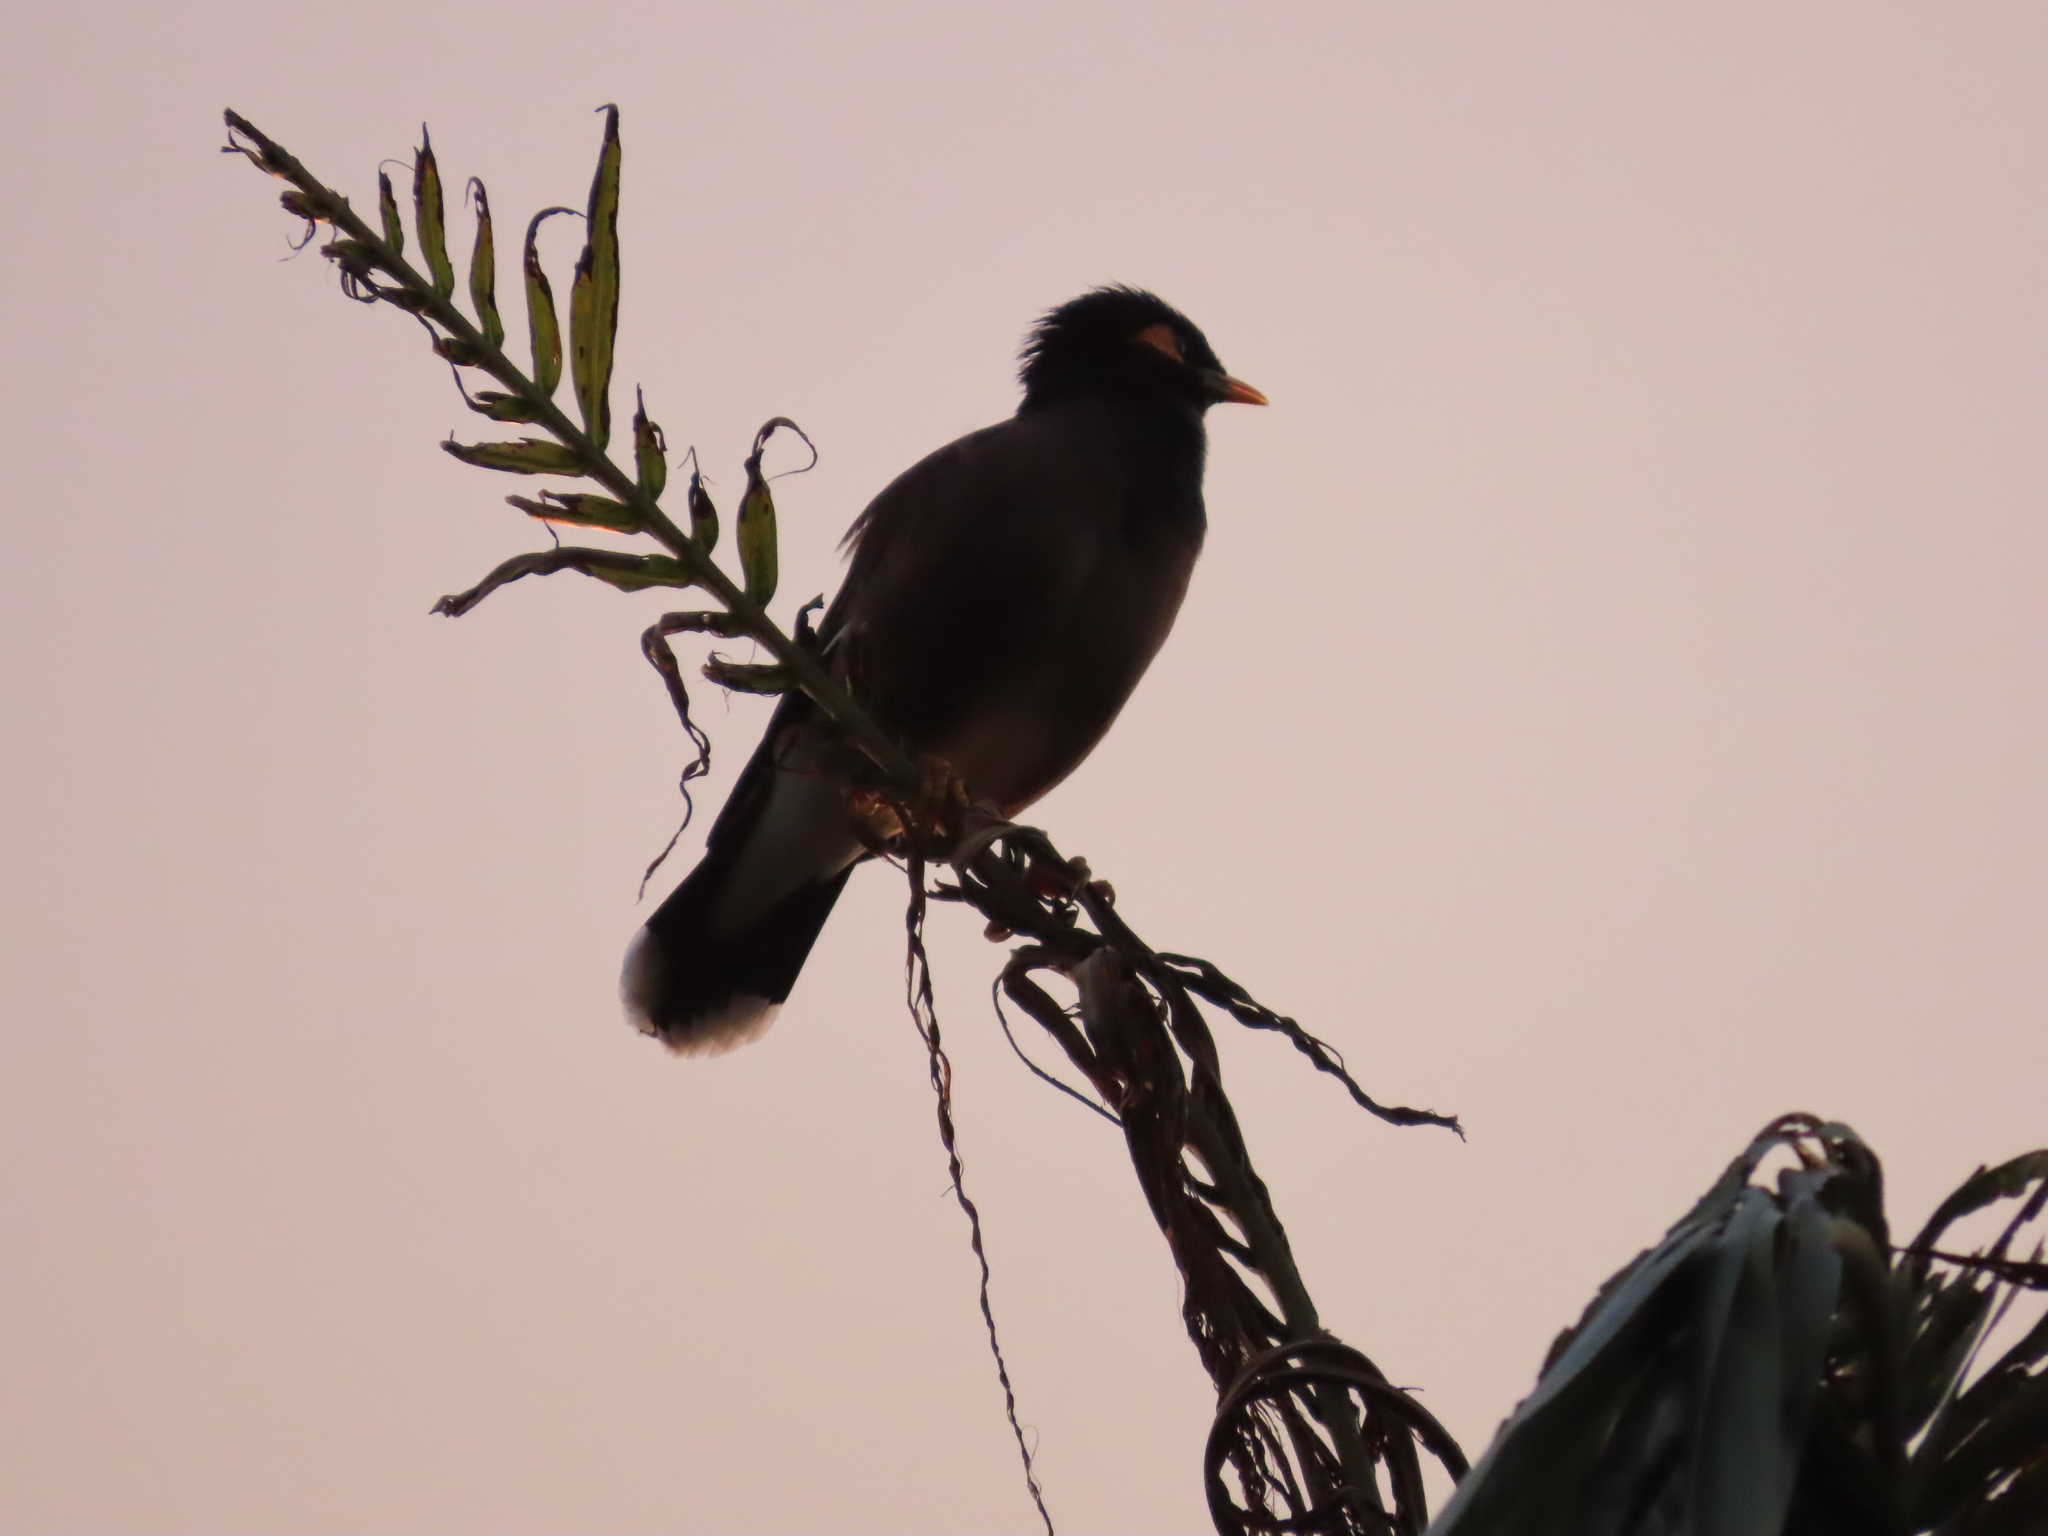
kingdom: Animalia
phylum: Chordata
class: Aves
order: Passeriformes
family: Sturnidae
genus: Acridotheres
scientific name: Acridotheres tristis
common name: Common myna
